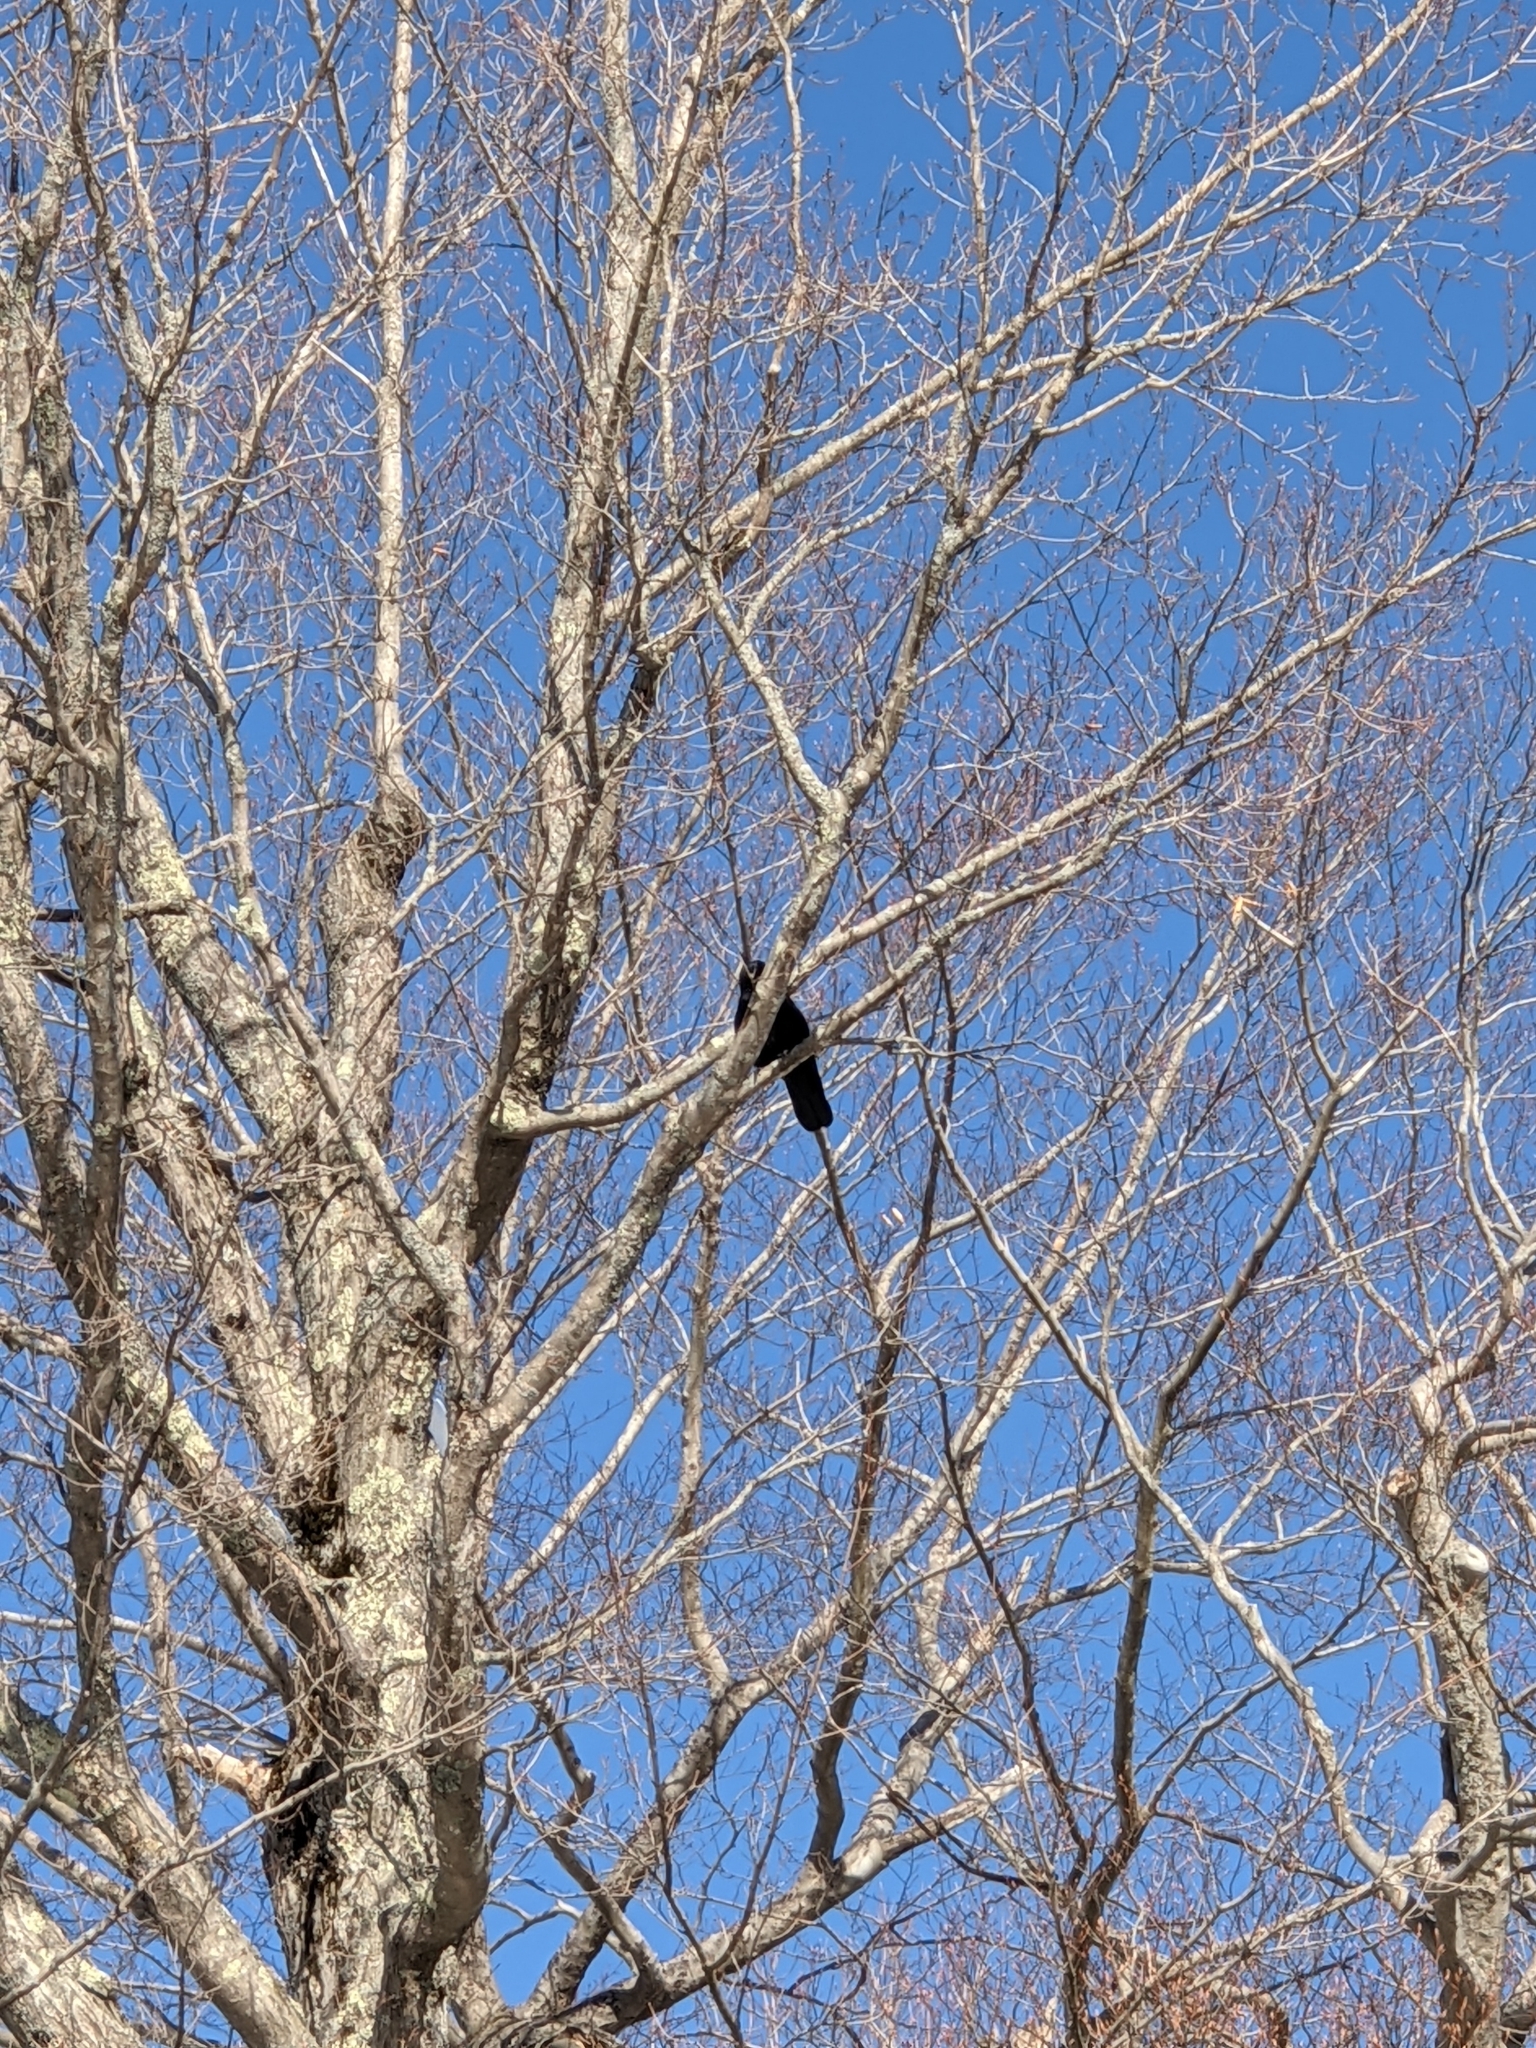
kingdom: Animalia
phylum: Chordata
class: Aves
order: Passeriformes
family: Corvidae
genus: Corvus
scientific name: Corvus brachyrhynchos
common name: American crow
